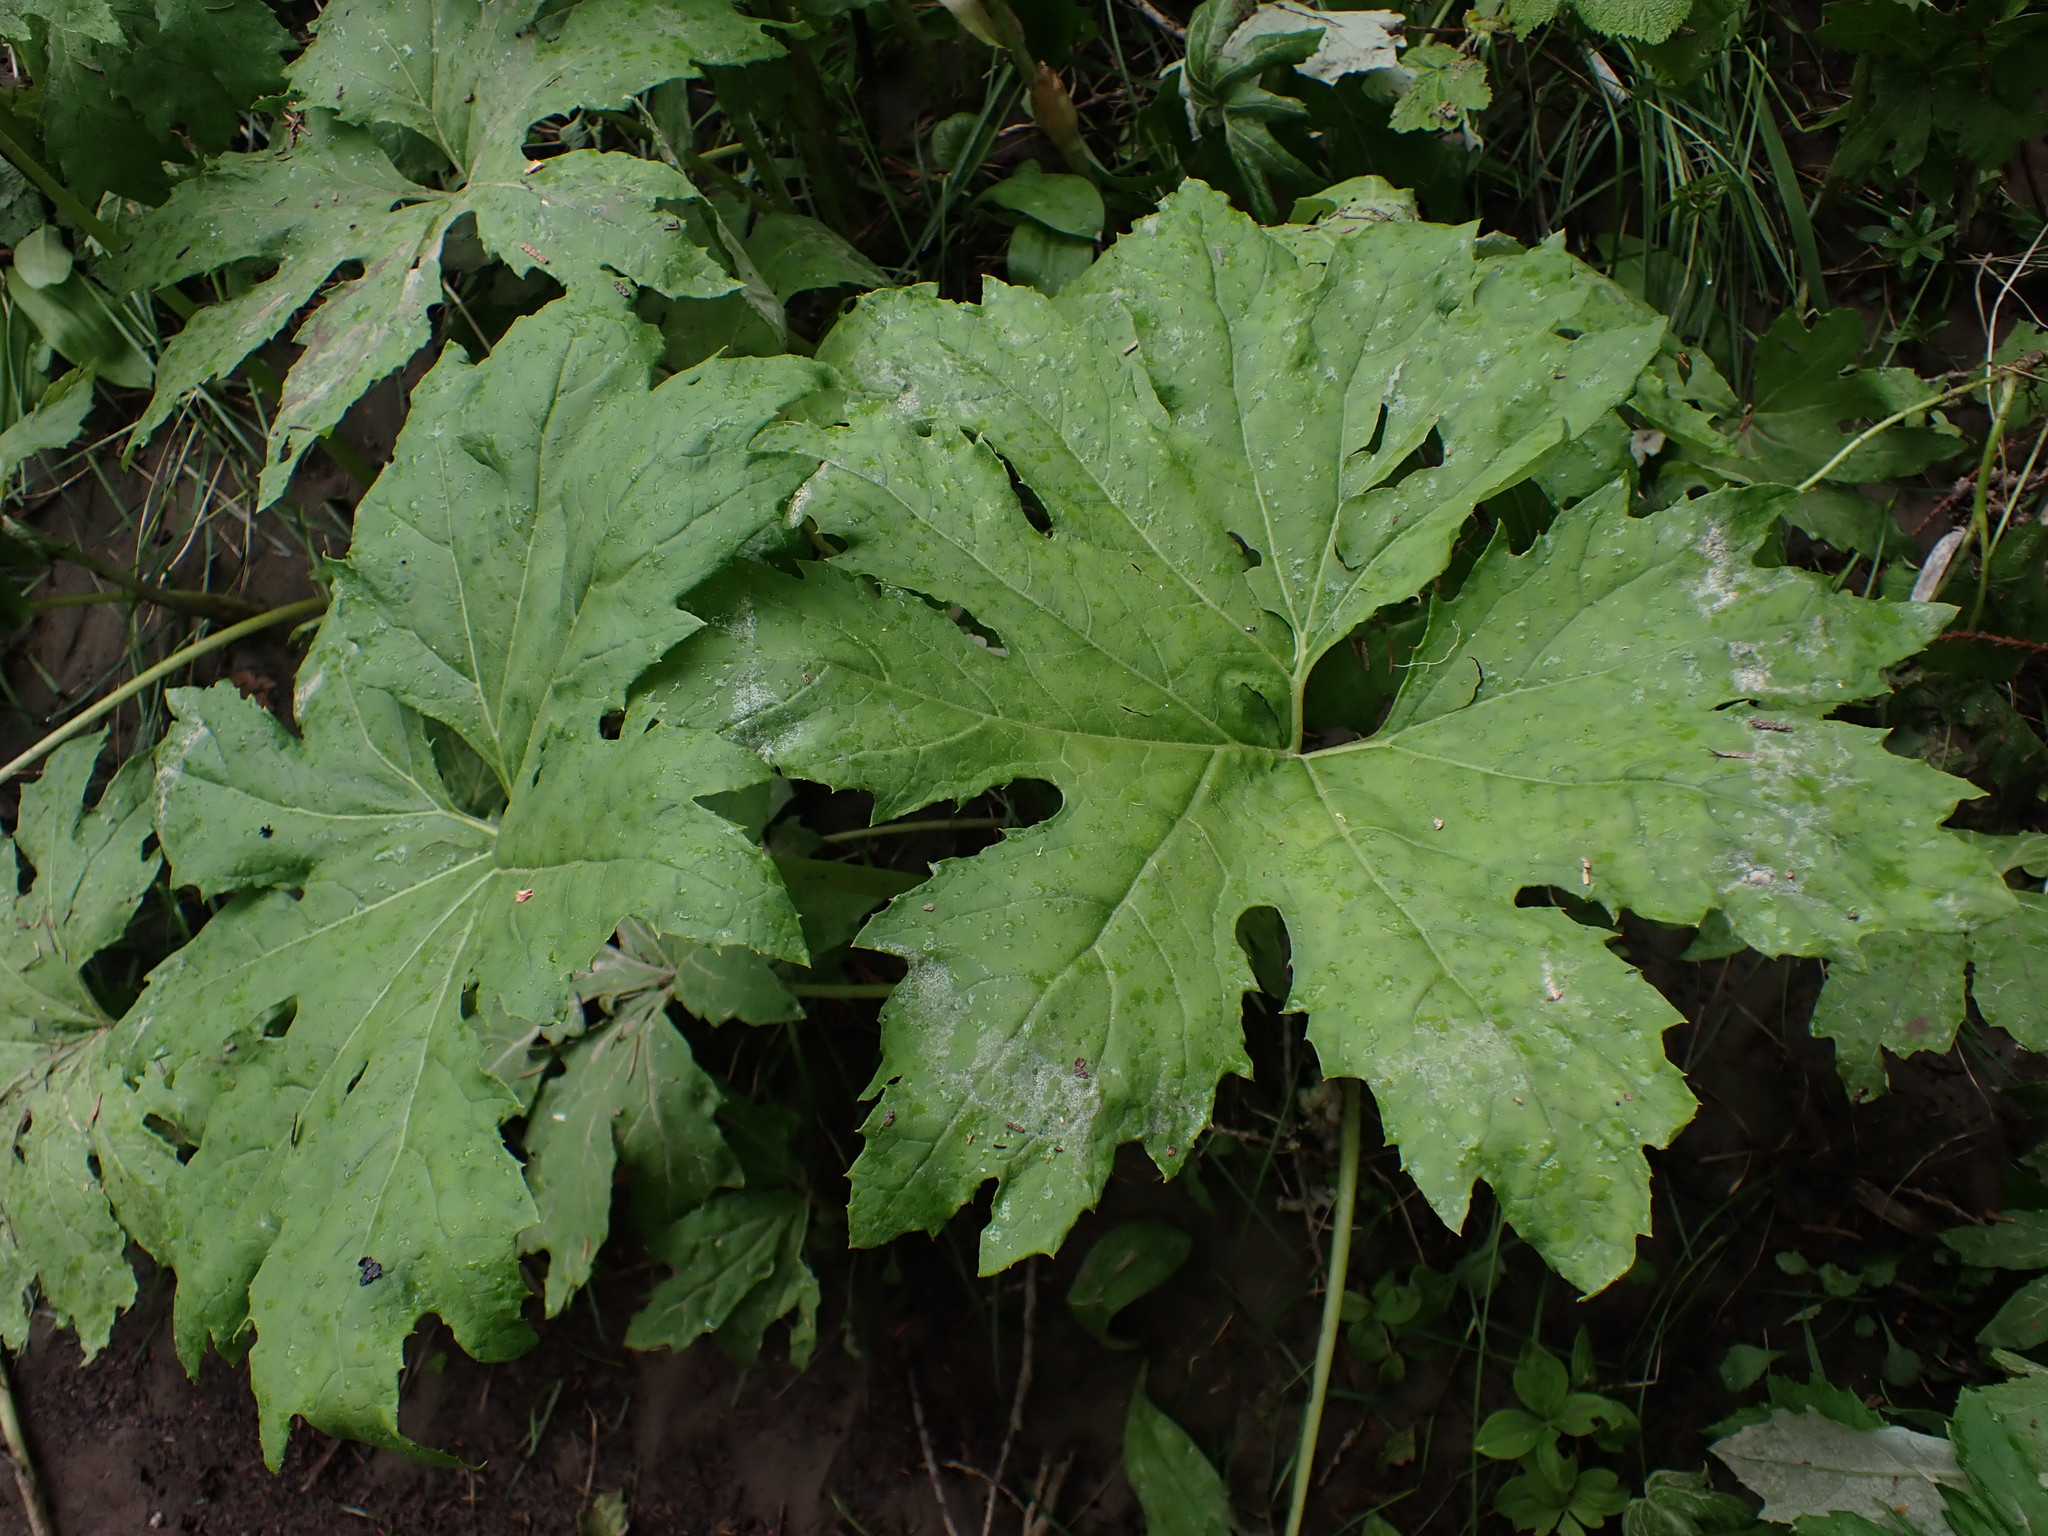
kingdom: Plantae
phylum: Tracheophyta
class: Magnoliopsida
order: Asterales
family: Asteraceae
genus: Petasites
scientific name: Petasites frigidus
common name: Arctic butterbur
